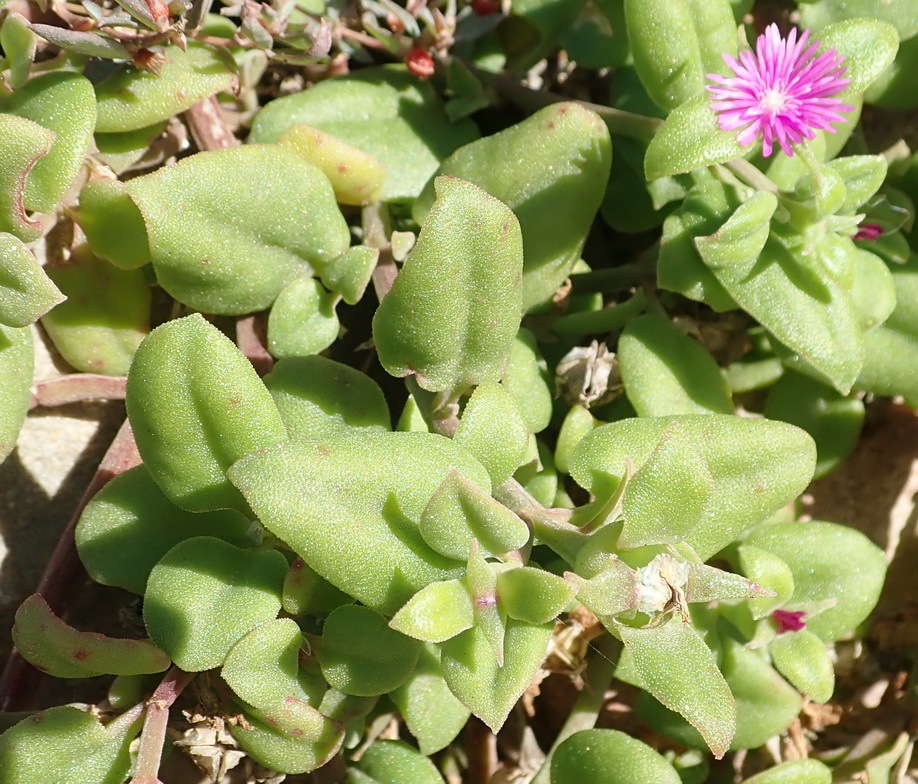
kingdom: Plantae
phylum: Tracheophyta
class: Magnoliopsida
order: Caryophyllales
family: Aizoaceae
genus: Mesembryanthemum
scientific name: Mesembryanthemum cordifolium
